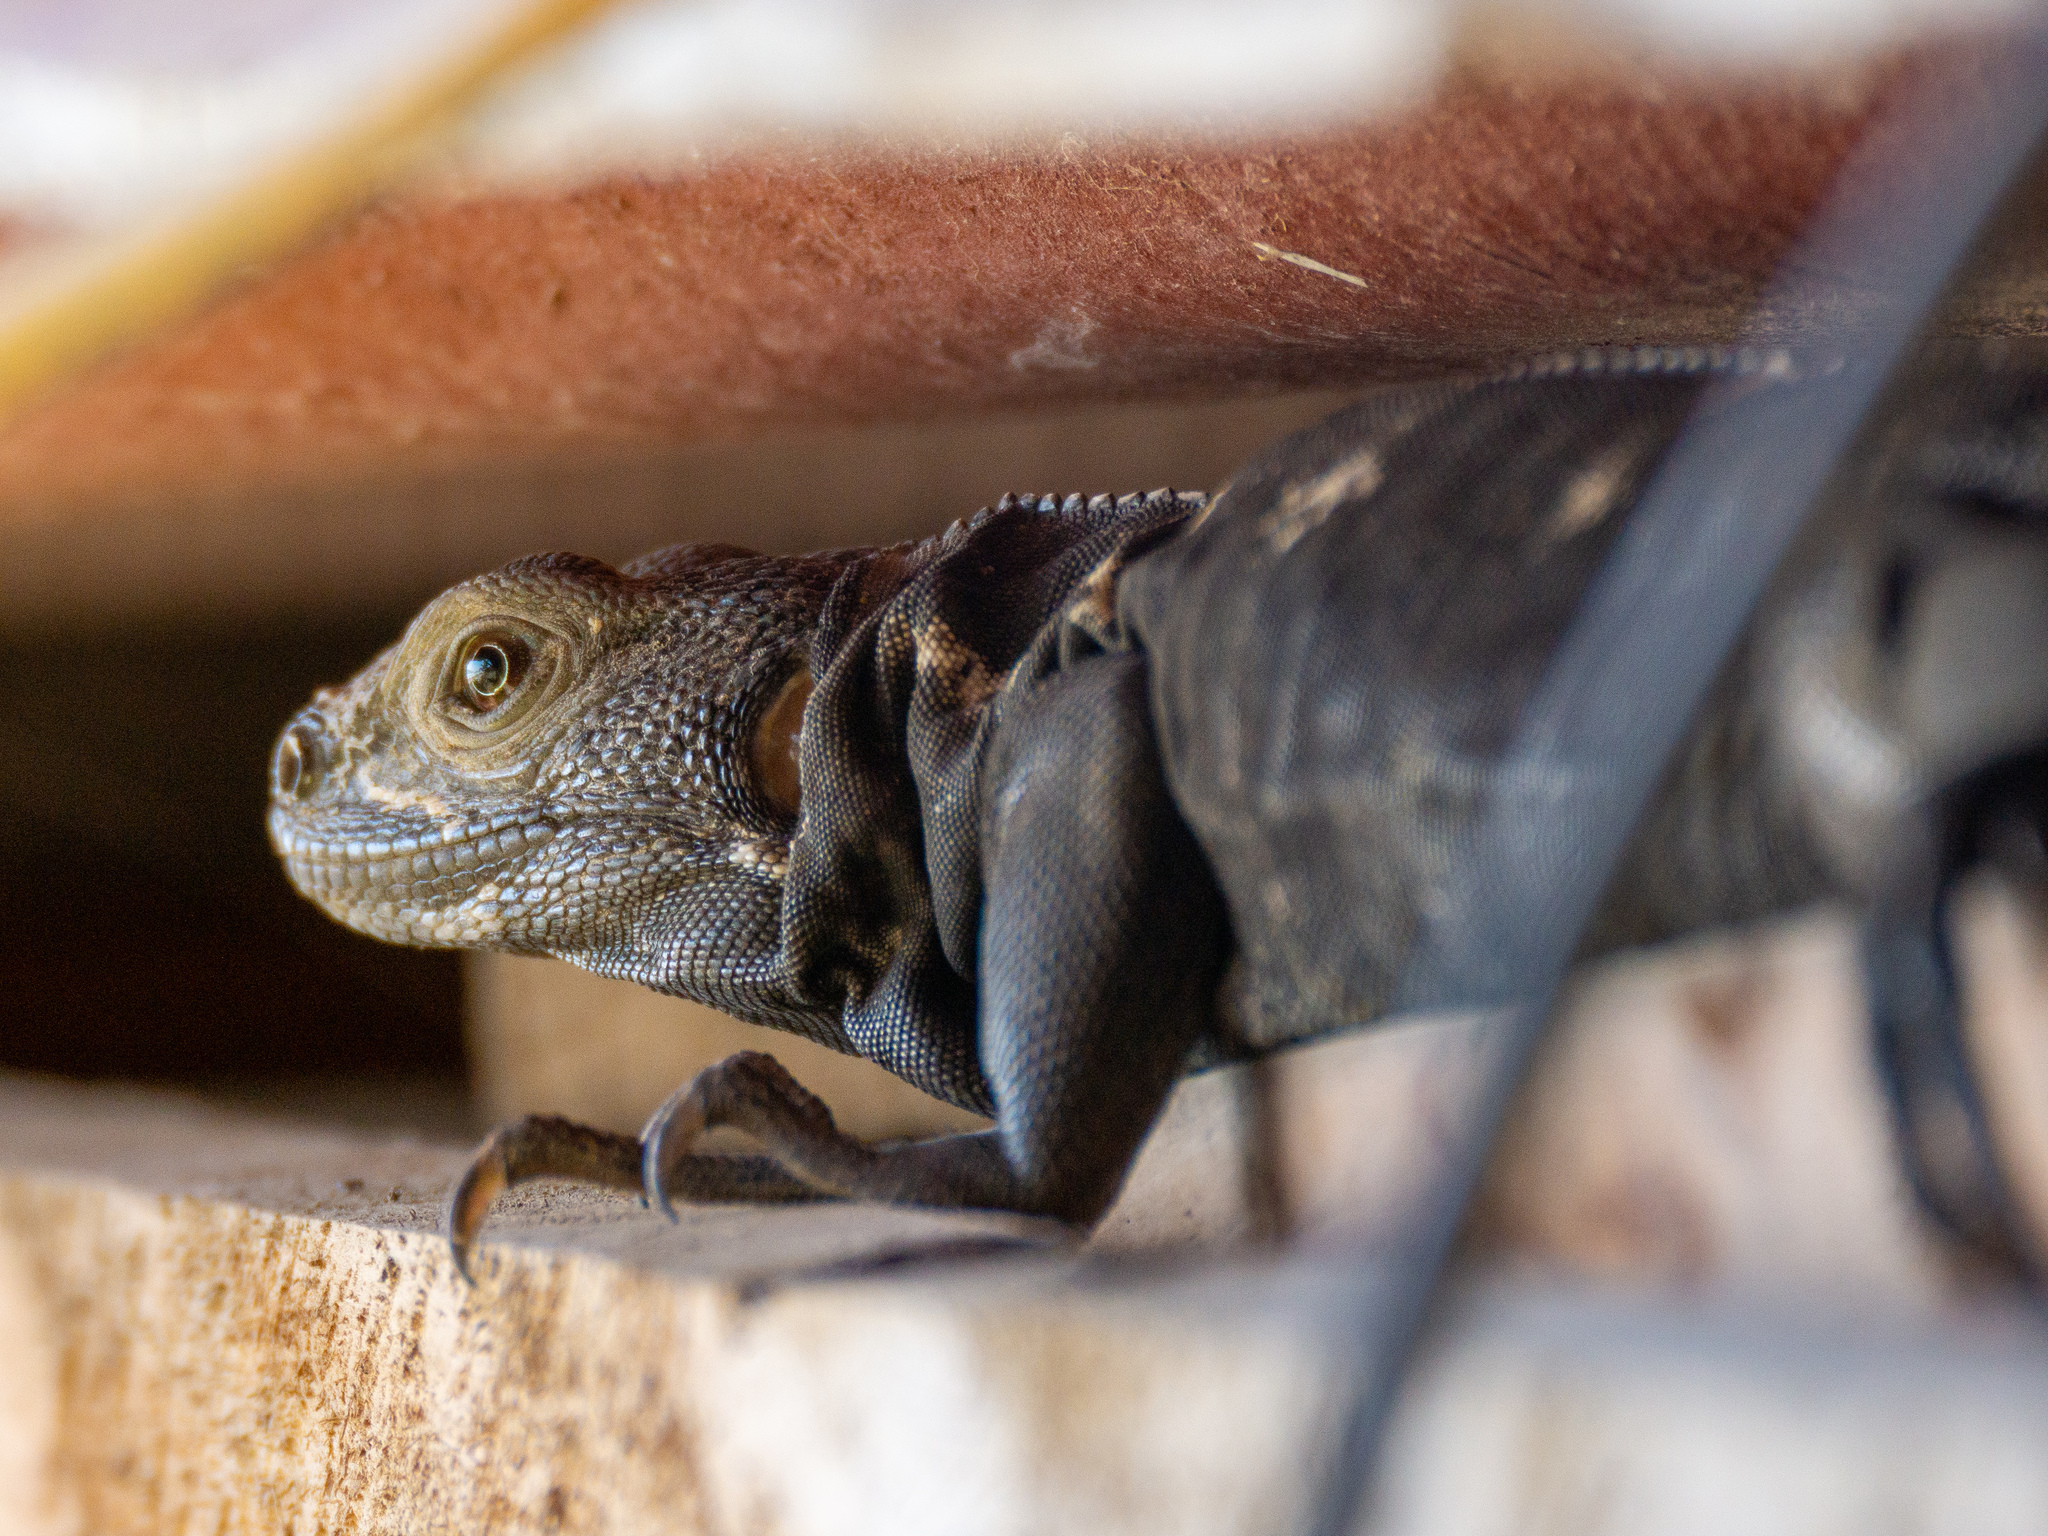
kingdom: Animalia
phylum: Chordata
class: Squamata
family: Iguanidae
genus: Ctenosaura
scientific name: Ctenosaura pectinata
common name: Guerreran spiny-tailed iguana
